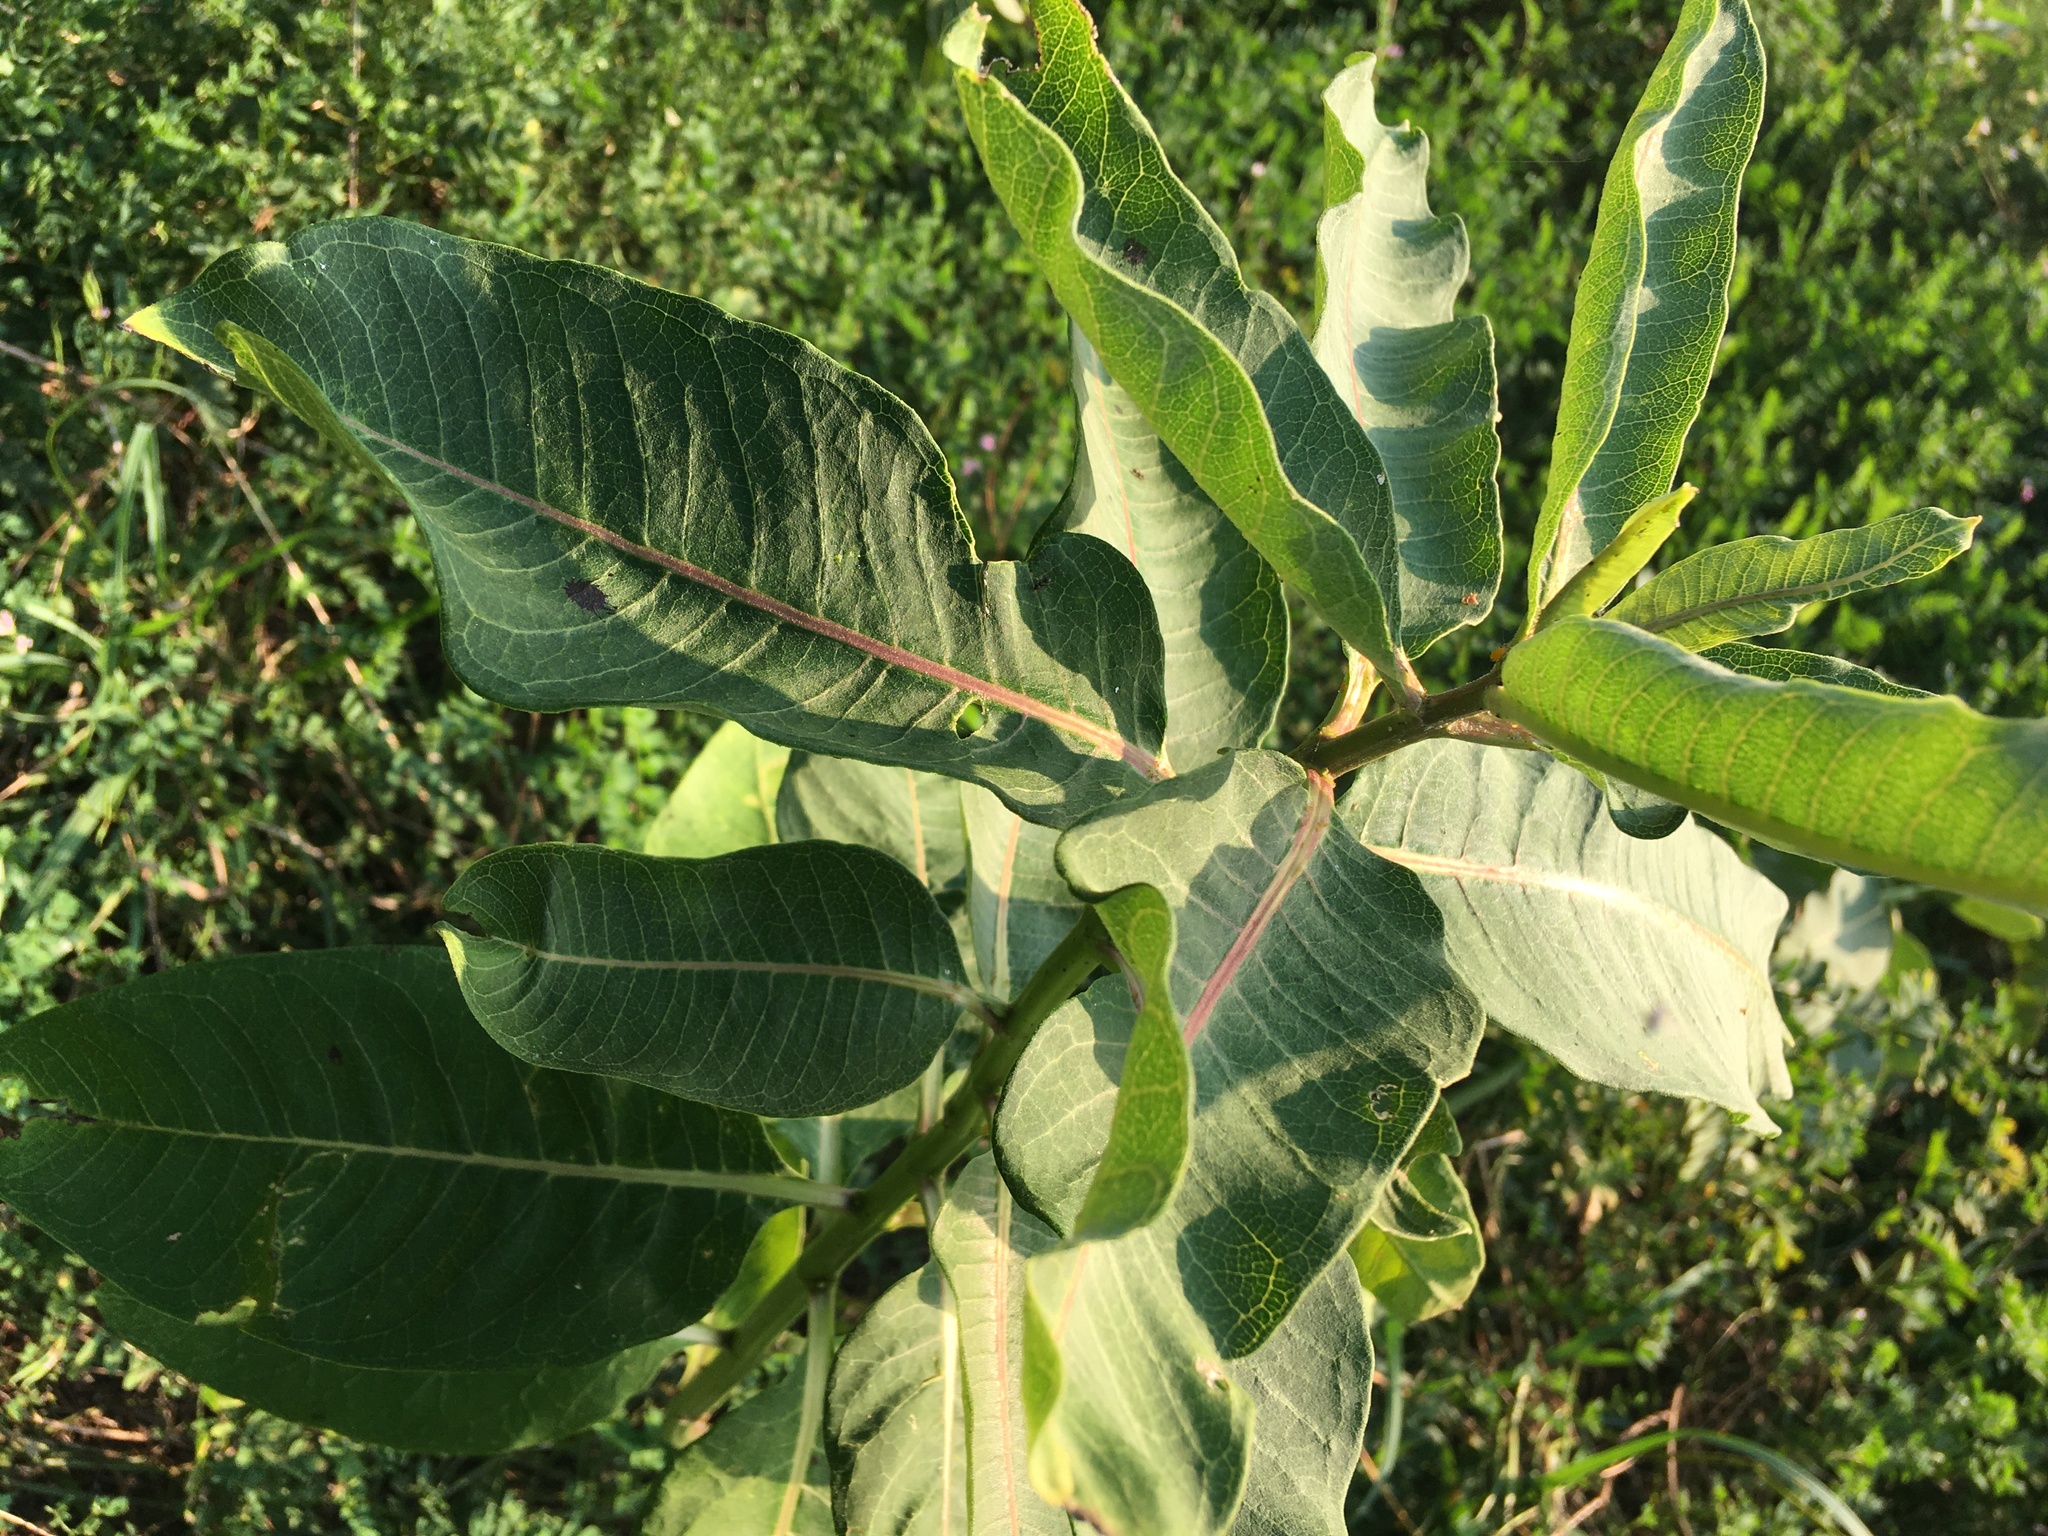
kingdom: Plantae
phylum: Tracheophyta
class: Magnoliopsida
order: Gentianales
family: Apocynaceae
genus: Asclepias
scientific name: Asclepias syriaca
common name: Common milkweed
